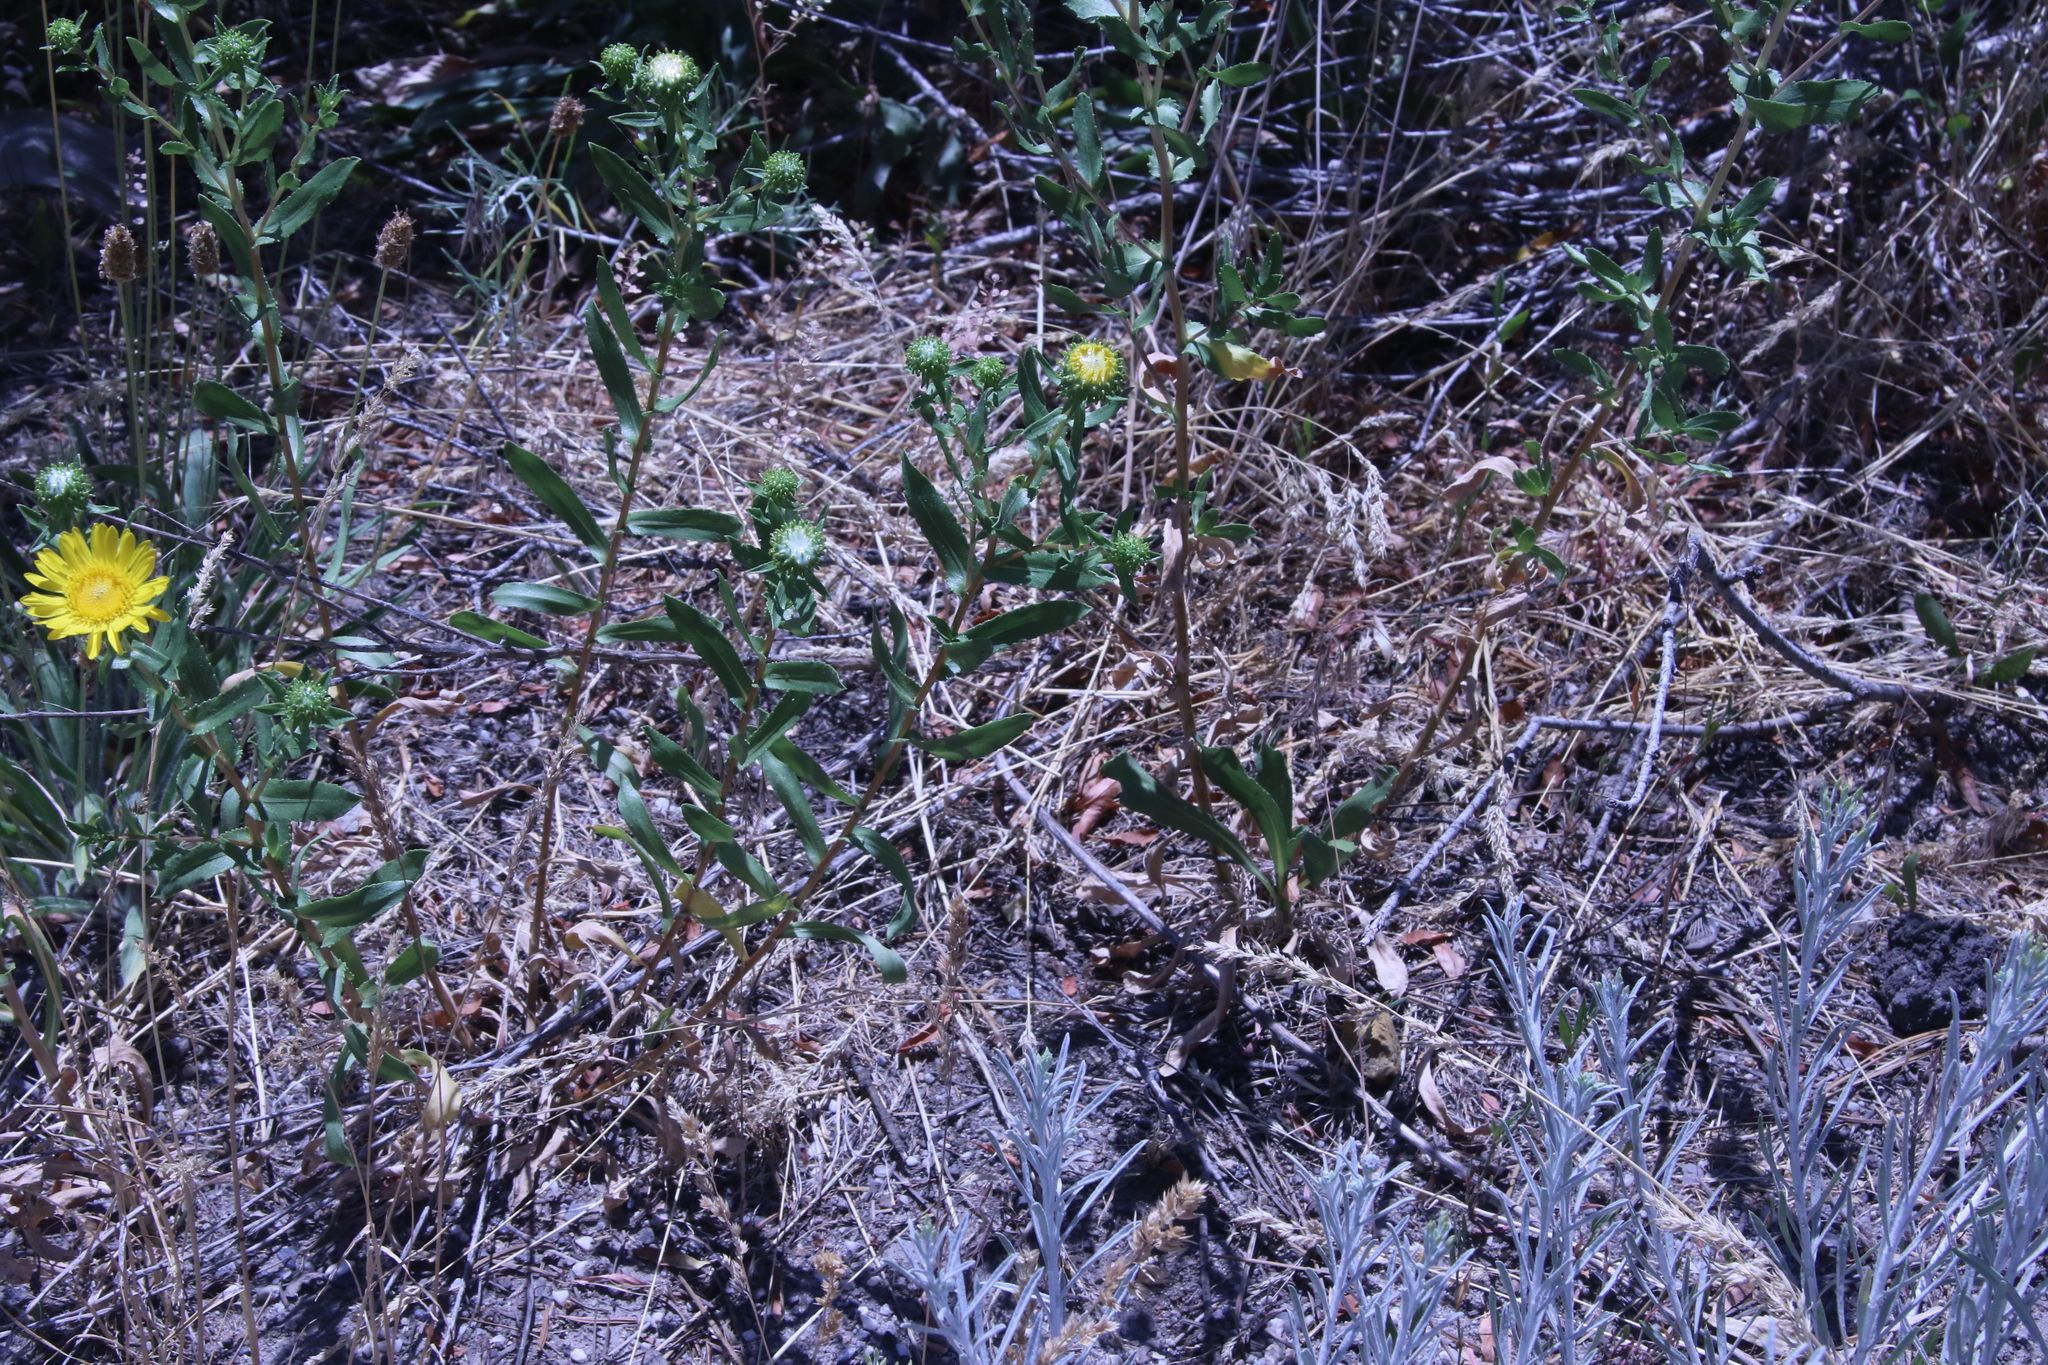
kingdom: Plantae
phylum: Tracheophyta
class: Magnoliopsida
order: Asterales
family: Asteraceae
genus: Grindelia
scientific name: Grindelia hirsutula
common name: Hairy gumweed
